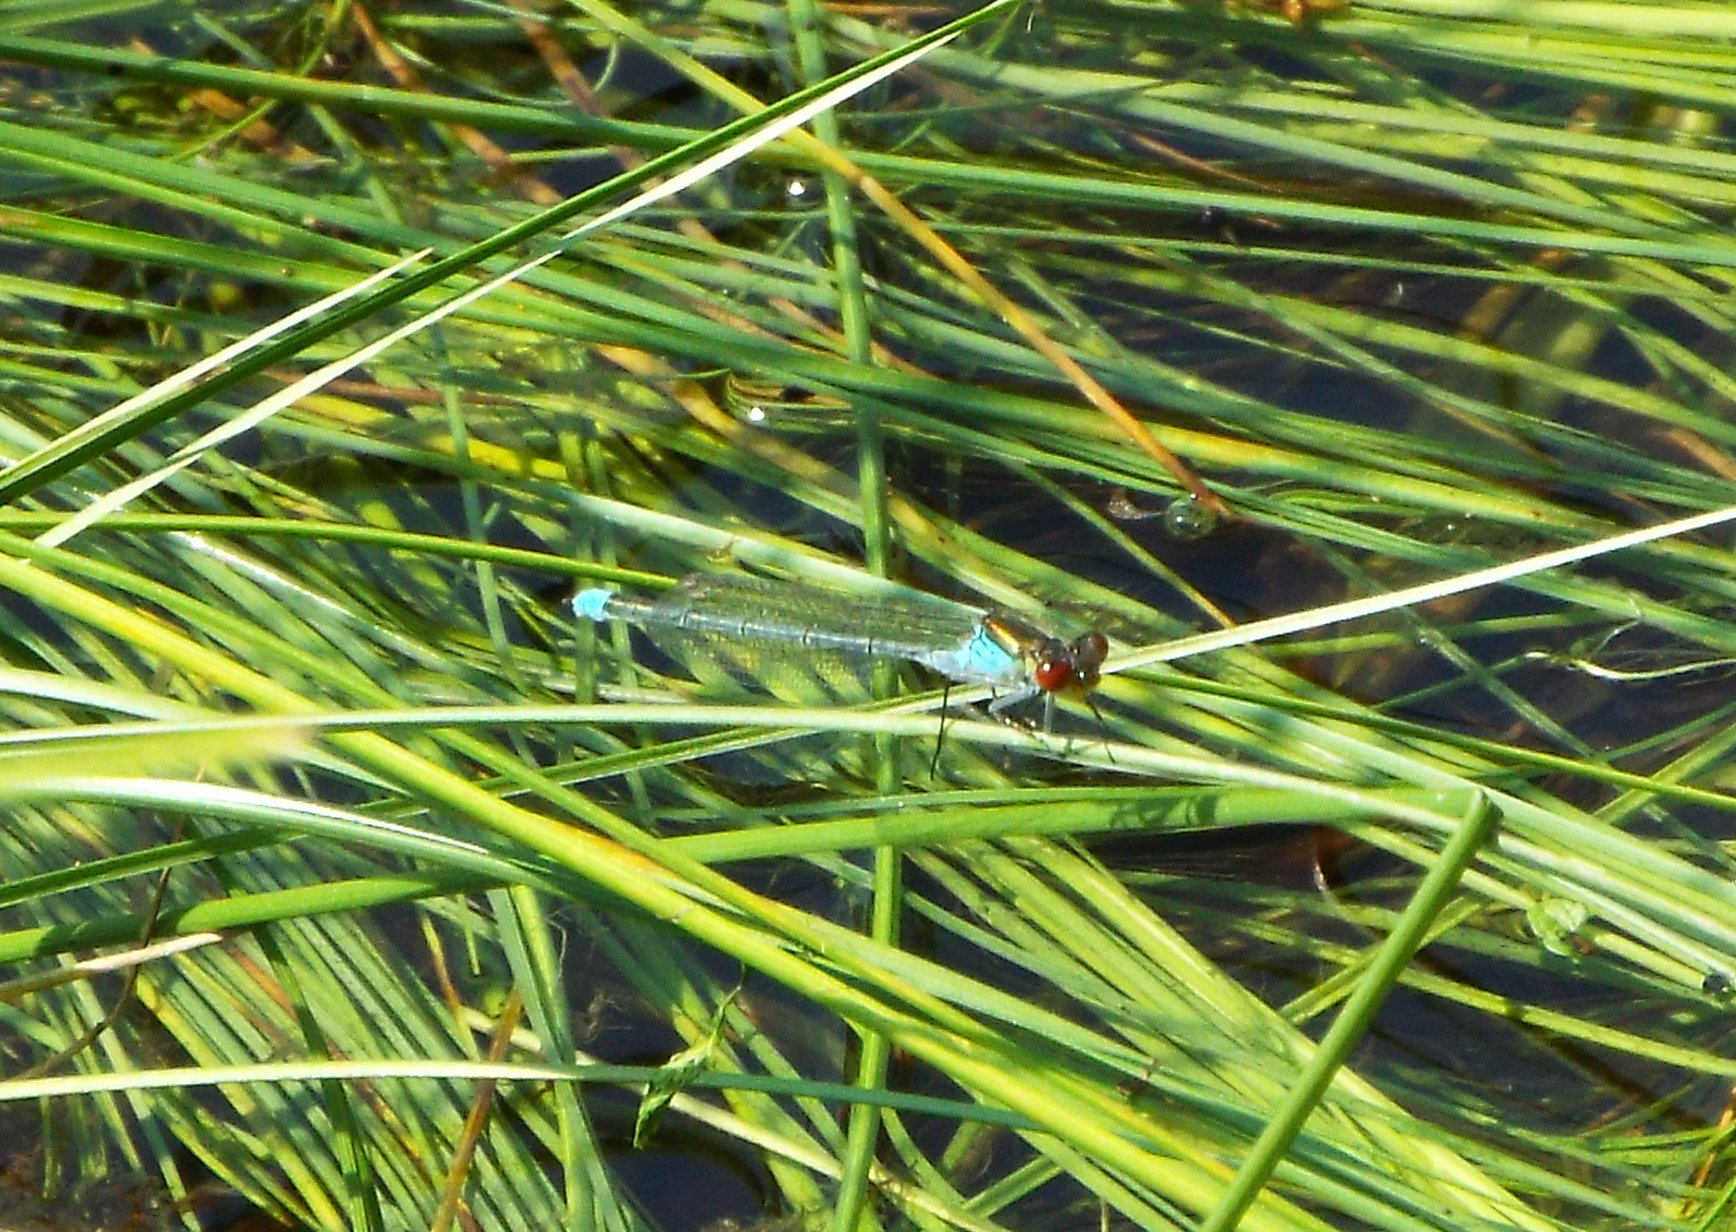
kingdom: Animalia
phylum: Arthropoda
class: Insecta
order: Odonata
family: Coenagrionidae
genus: Erythromma
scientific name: Erythromma najas
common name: Red-eyed damselfly
